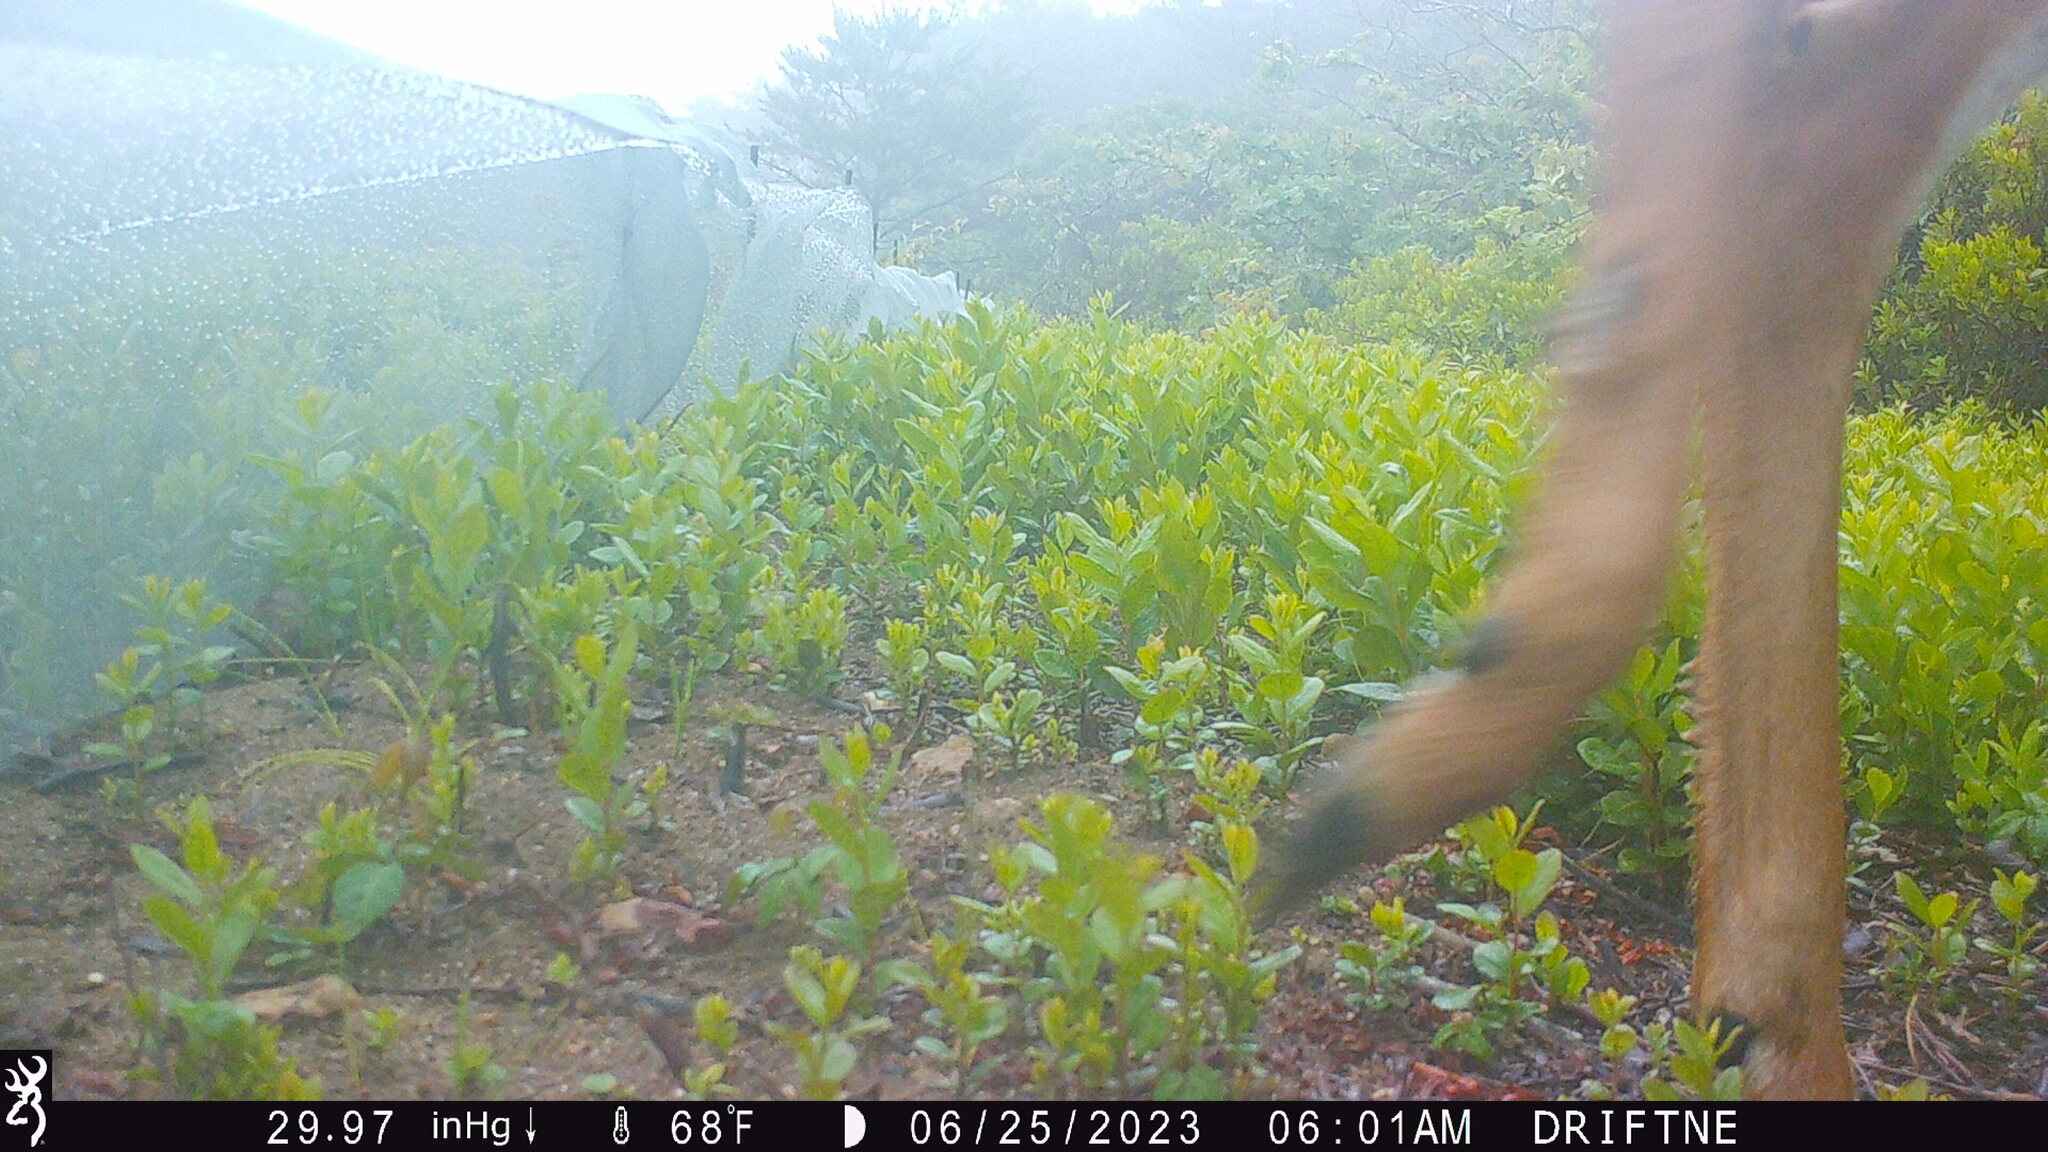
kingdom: Animalia
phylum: Chordata
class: Mammalia
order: Artiodactyla
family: Cervidae
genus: Odocoileus
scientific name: Odocoileus virginianus
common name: White-tailed deer
